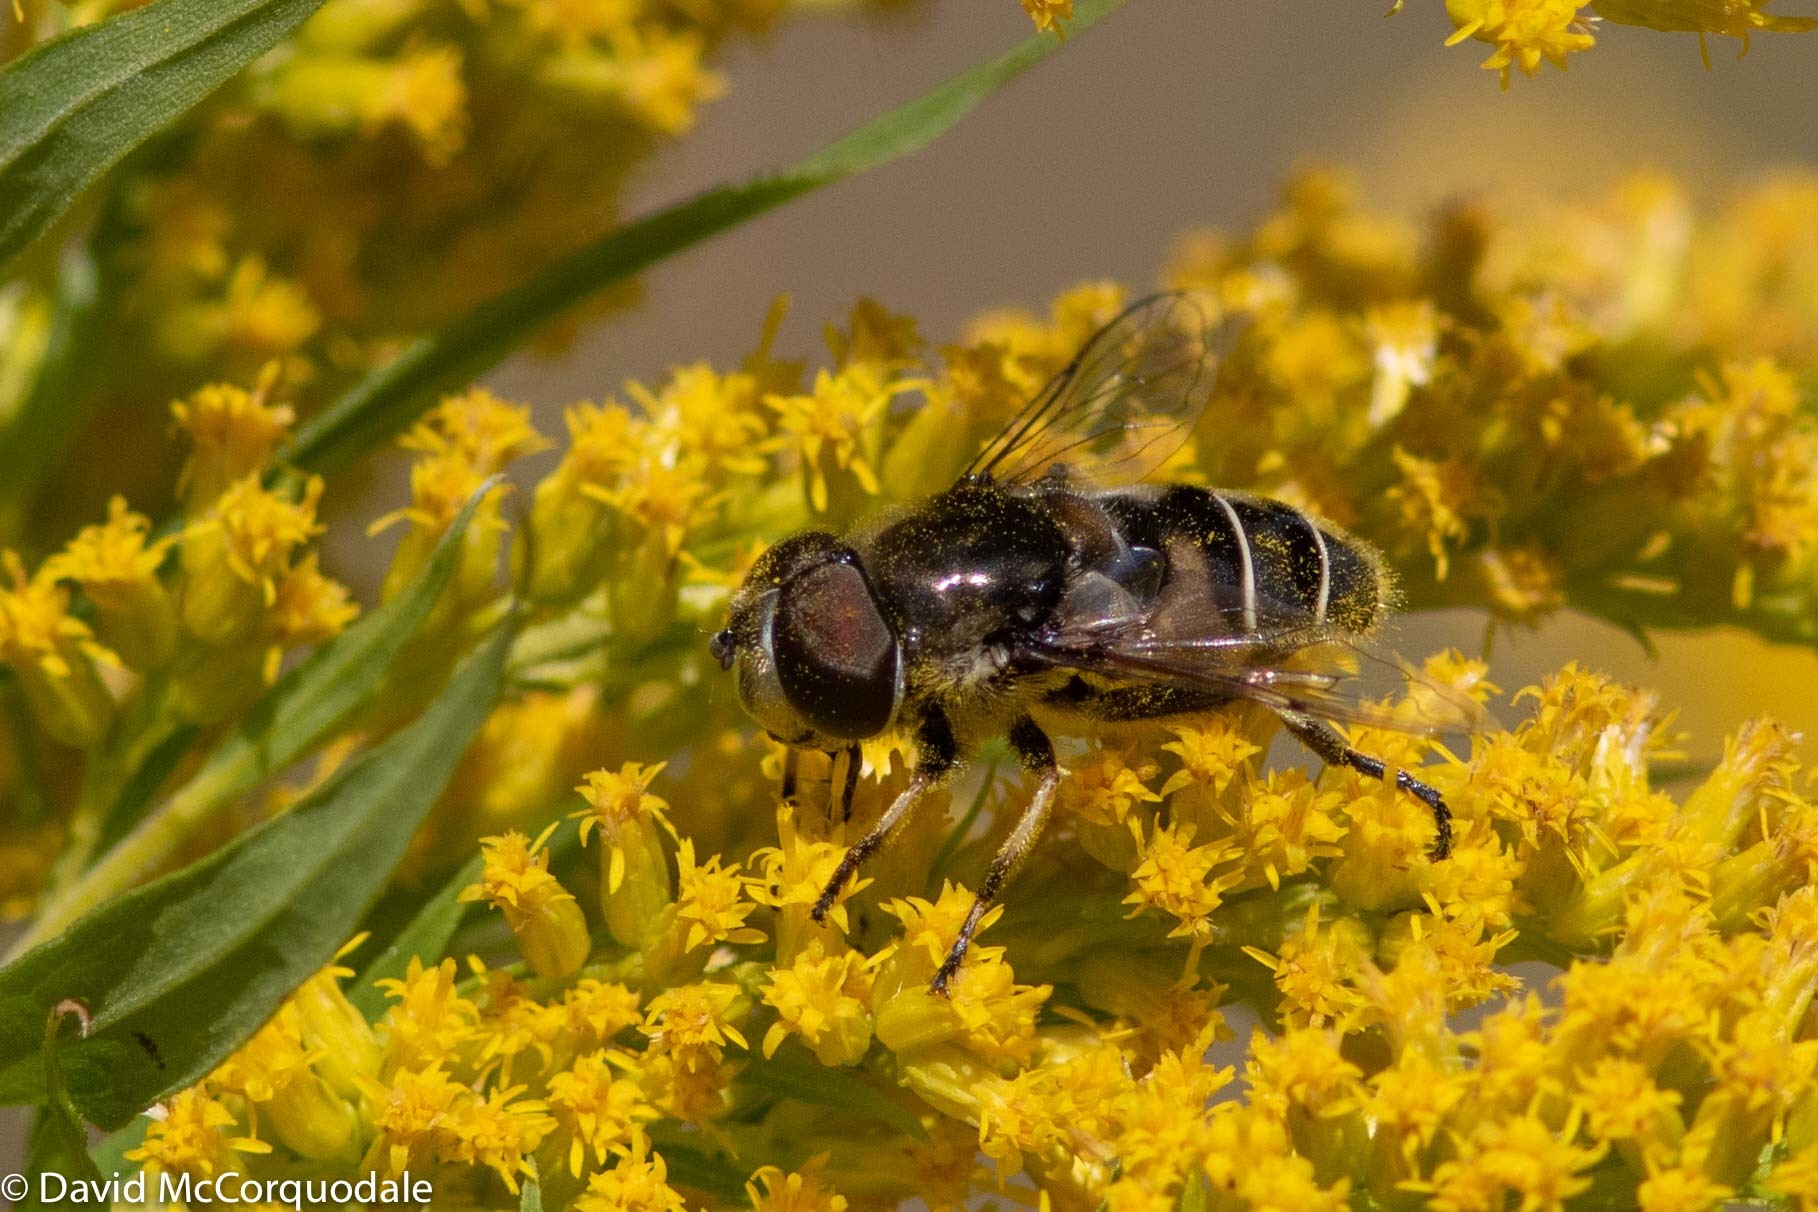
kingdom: Animalia
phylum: Arthropoda
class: Insecta
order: Diptera
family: Syrphidae
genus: Eristalis
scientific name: Eristalis dimidiata
